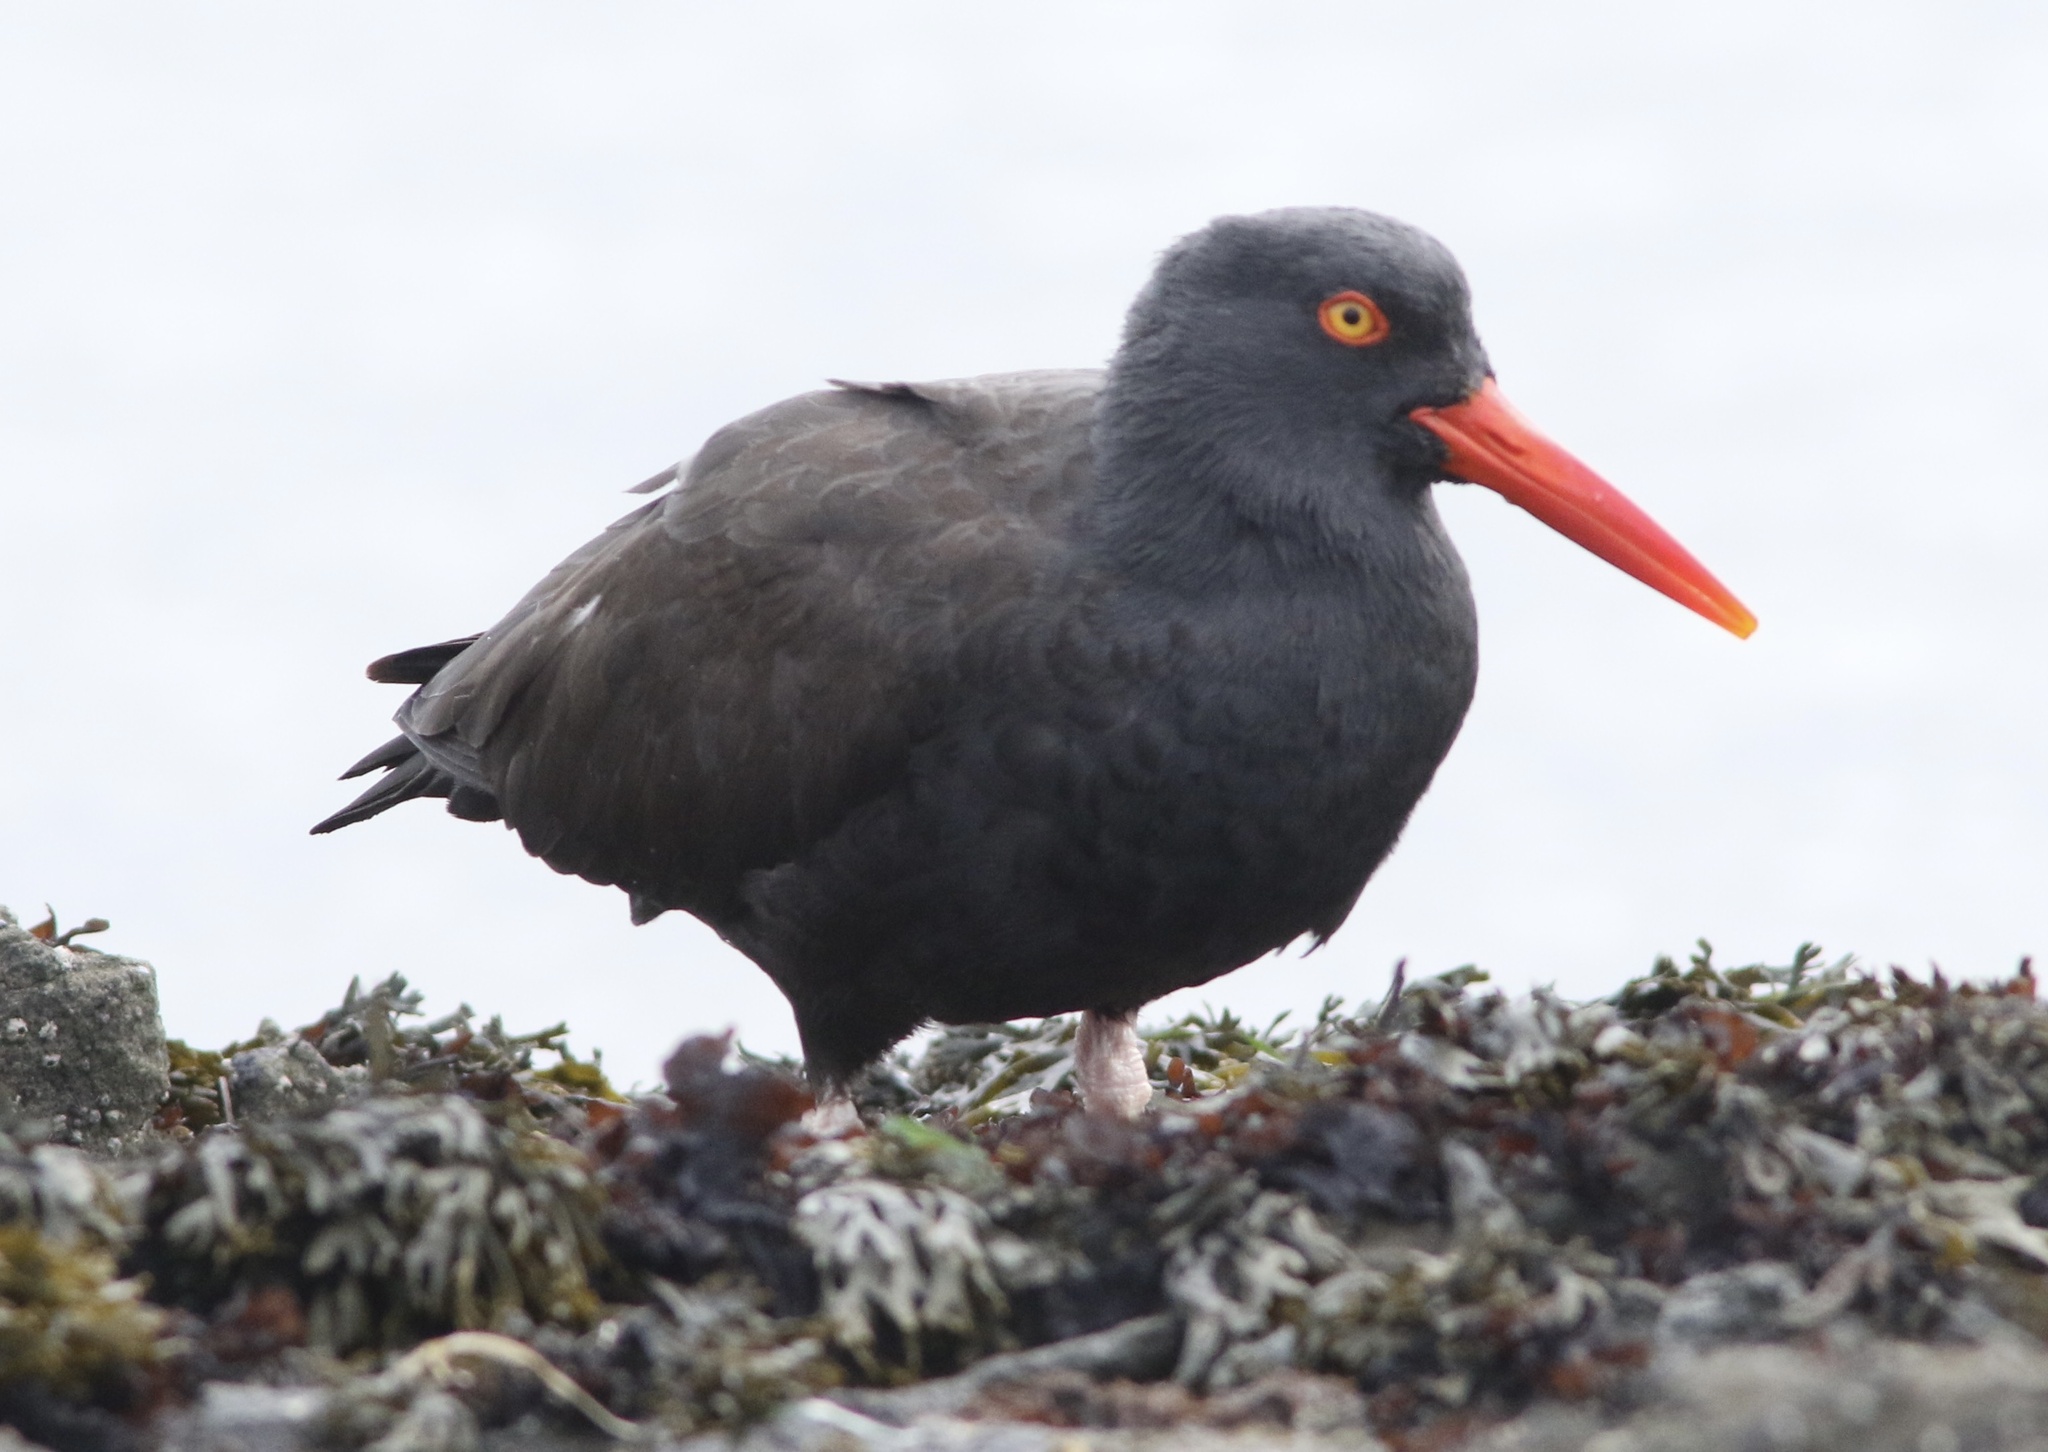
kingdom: Animalia
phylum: Chordata
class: Aves
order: Charadriiformes
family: Haematopodidae
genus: Haematopus
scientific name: Haematopus bachmani
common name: Black oystercatcher
